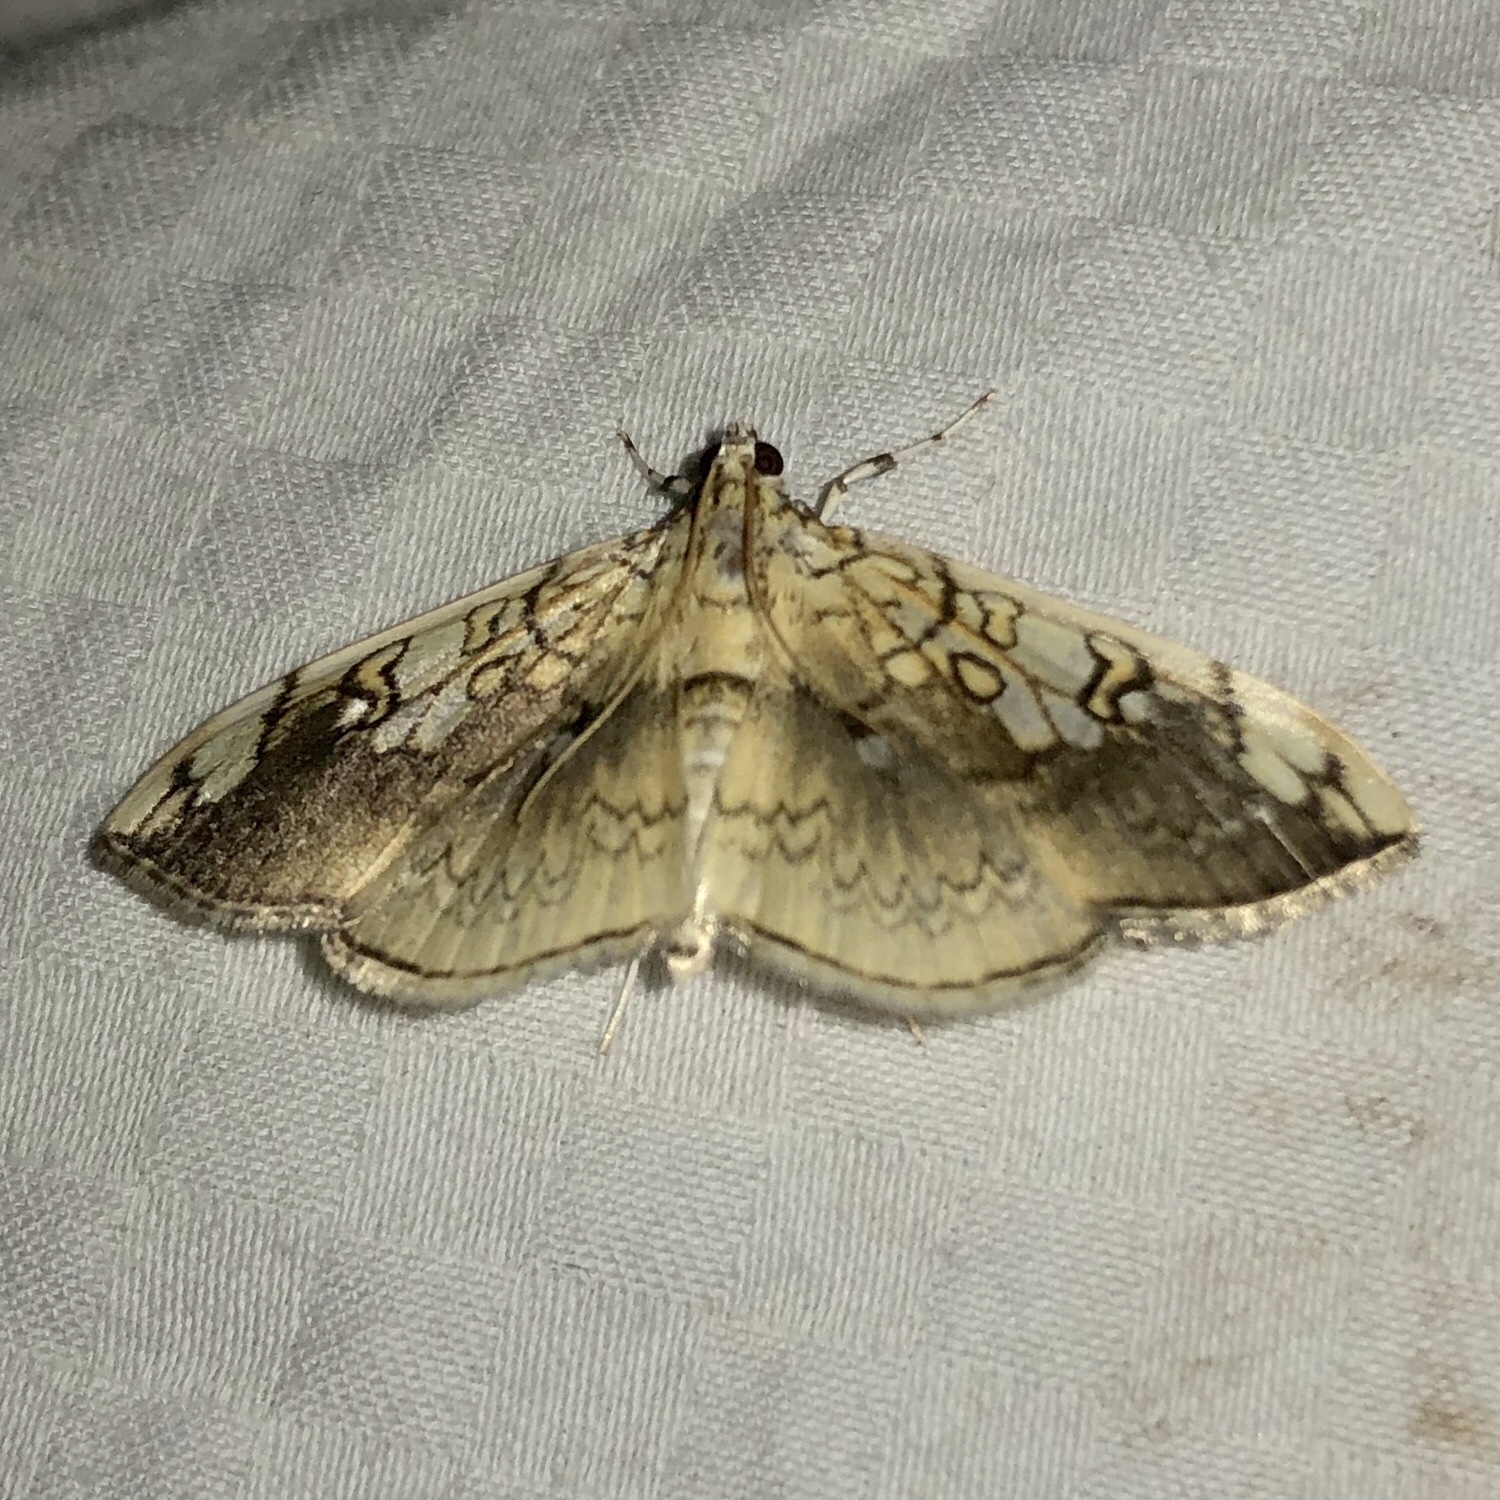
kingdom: Animalia
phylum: Arthropoda
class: Insecta
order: Lepidoptera
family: Crambidae
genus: Pantographa
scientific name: Pantographa limata
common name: Basswood leafroller moth
